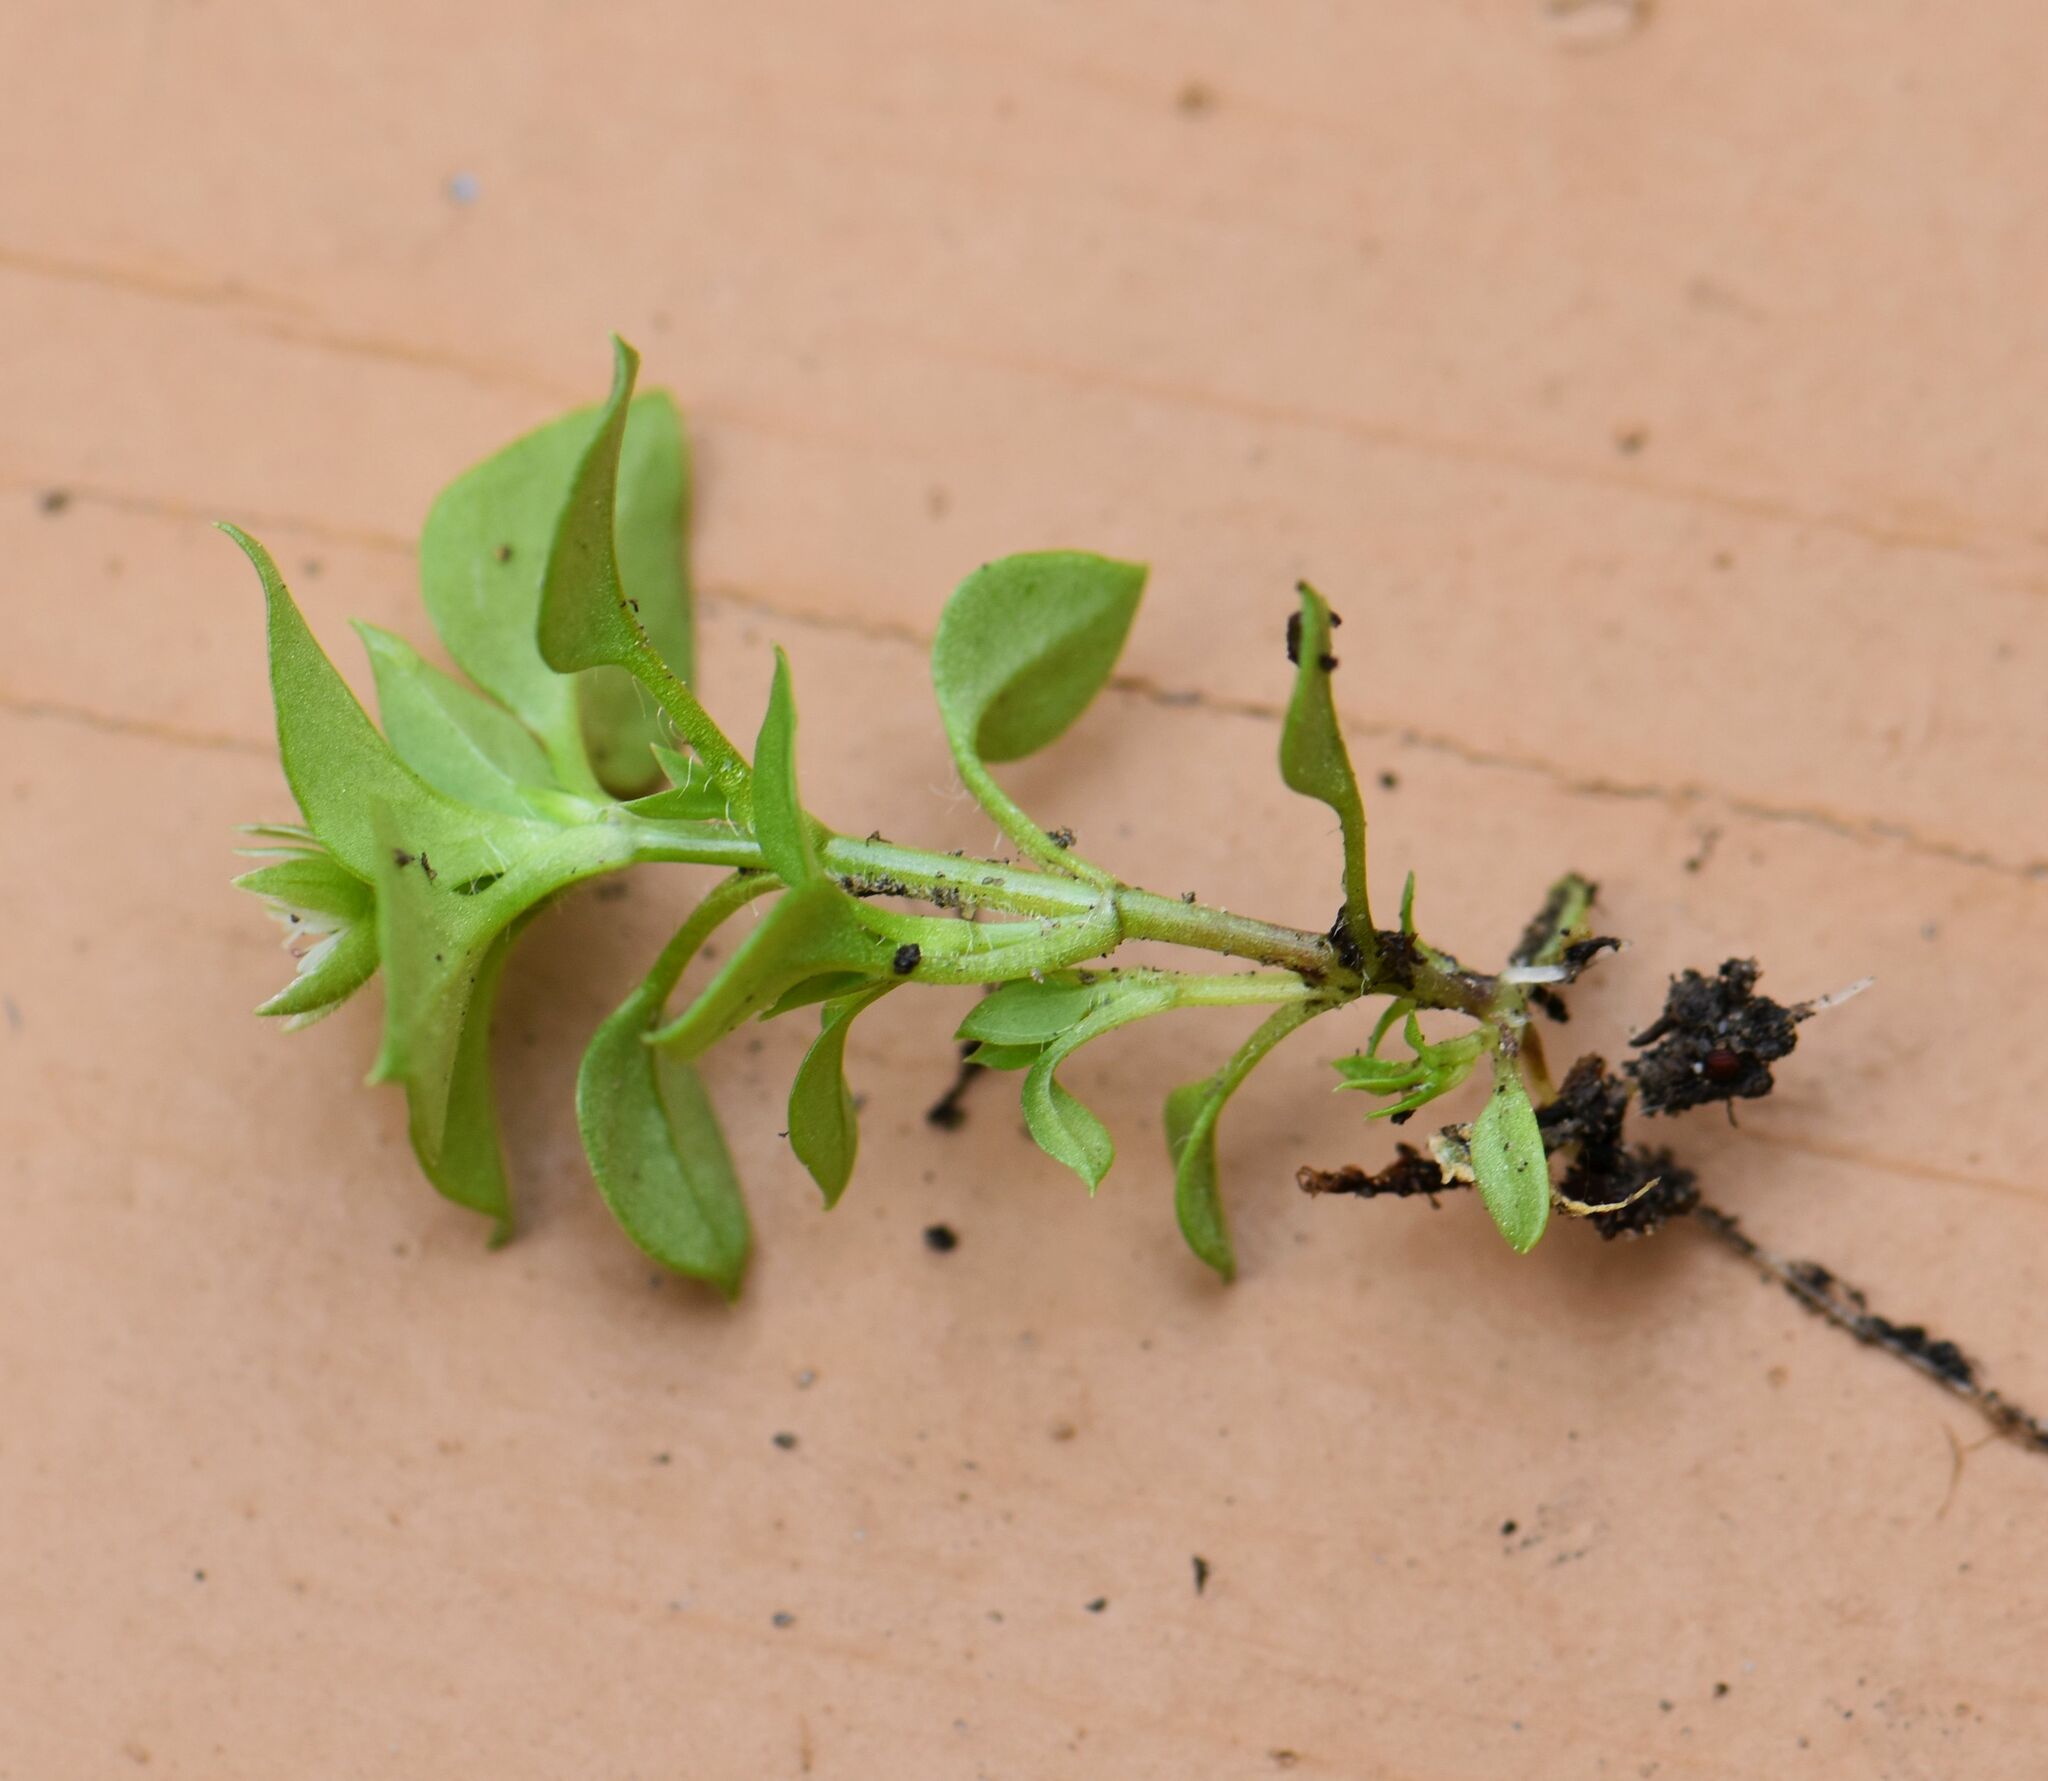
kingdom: Plantae
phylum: Tracheophyta
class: Magnoliopsida
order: Caryophyllales
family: Caryophyllaceae
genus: Stellaria
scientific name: Stellaria media
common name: Common chickweed
